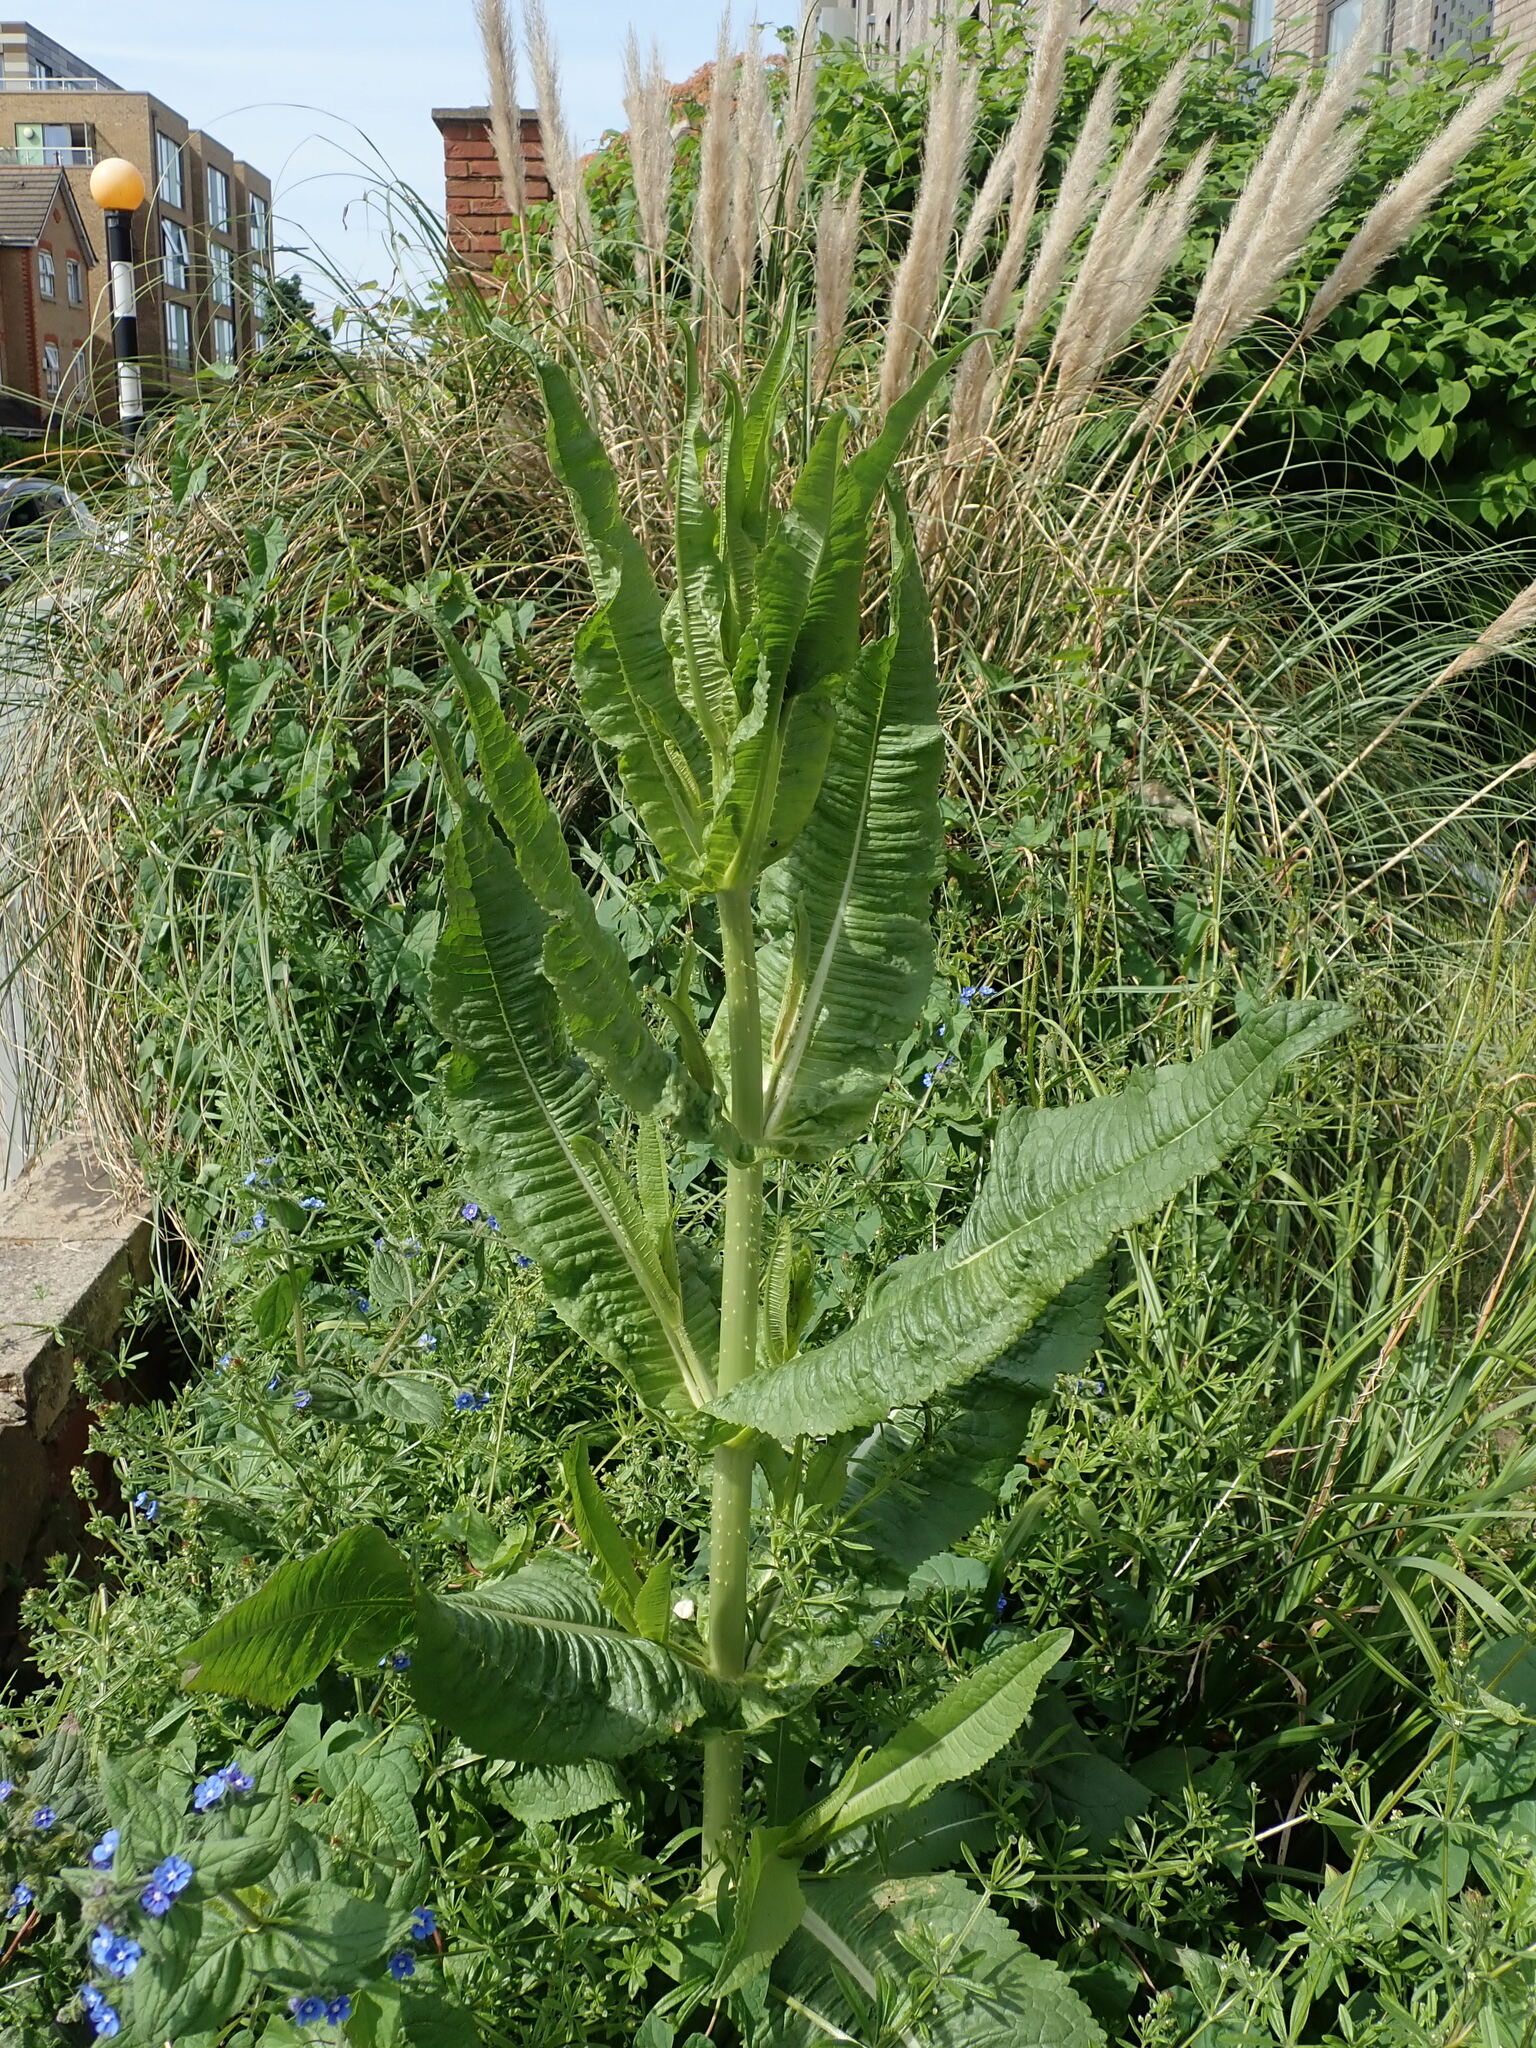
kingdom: Plantae
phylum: Tracheophyta
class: Magnoliopsida
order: Dipsacales
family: Caprifoliaceae
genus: Dipsacus
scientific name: Dipsacus fullonum
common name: Teasel
